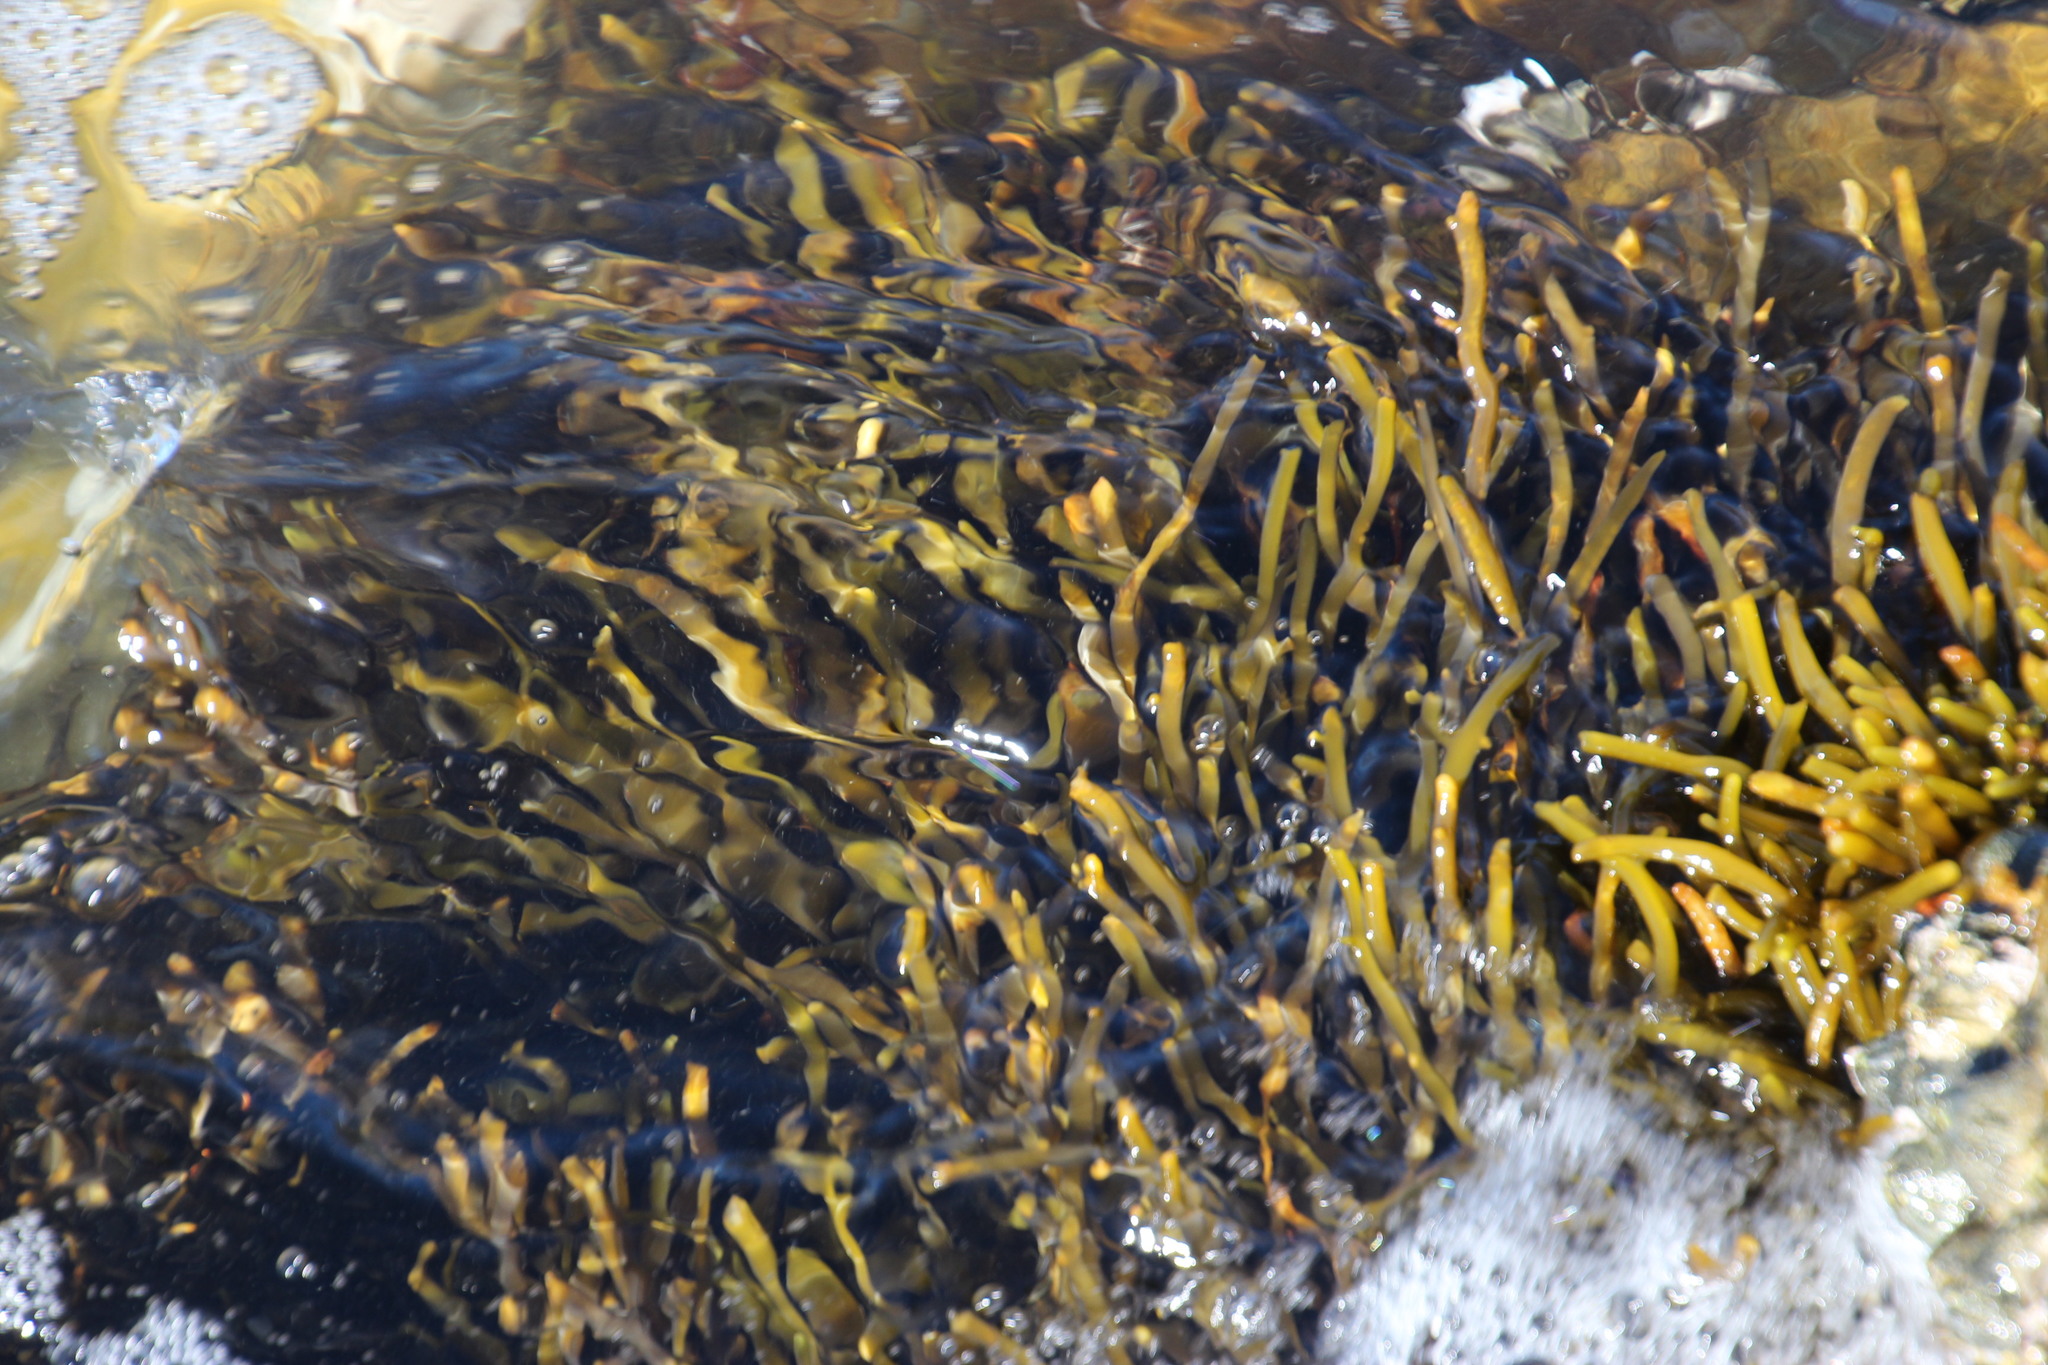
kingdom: Chromista
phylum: Ochrophyta
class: Phaeophyceae
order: Fucales
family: Sargassaceae
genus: Brassicophycus
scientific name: Brassicophycus
